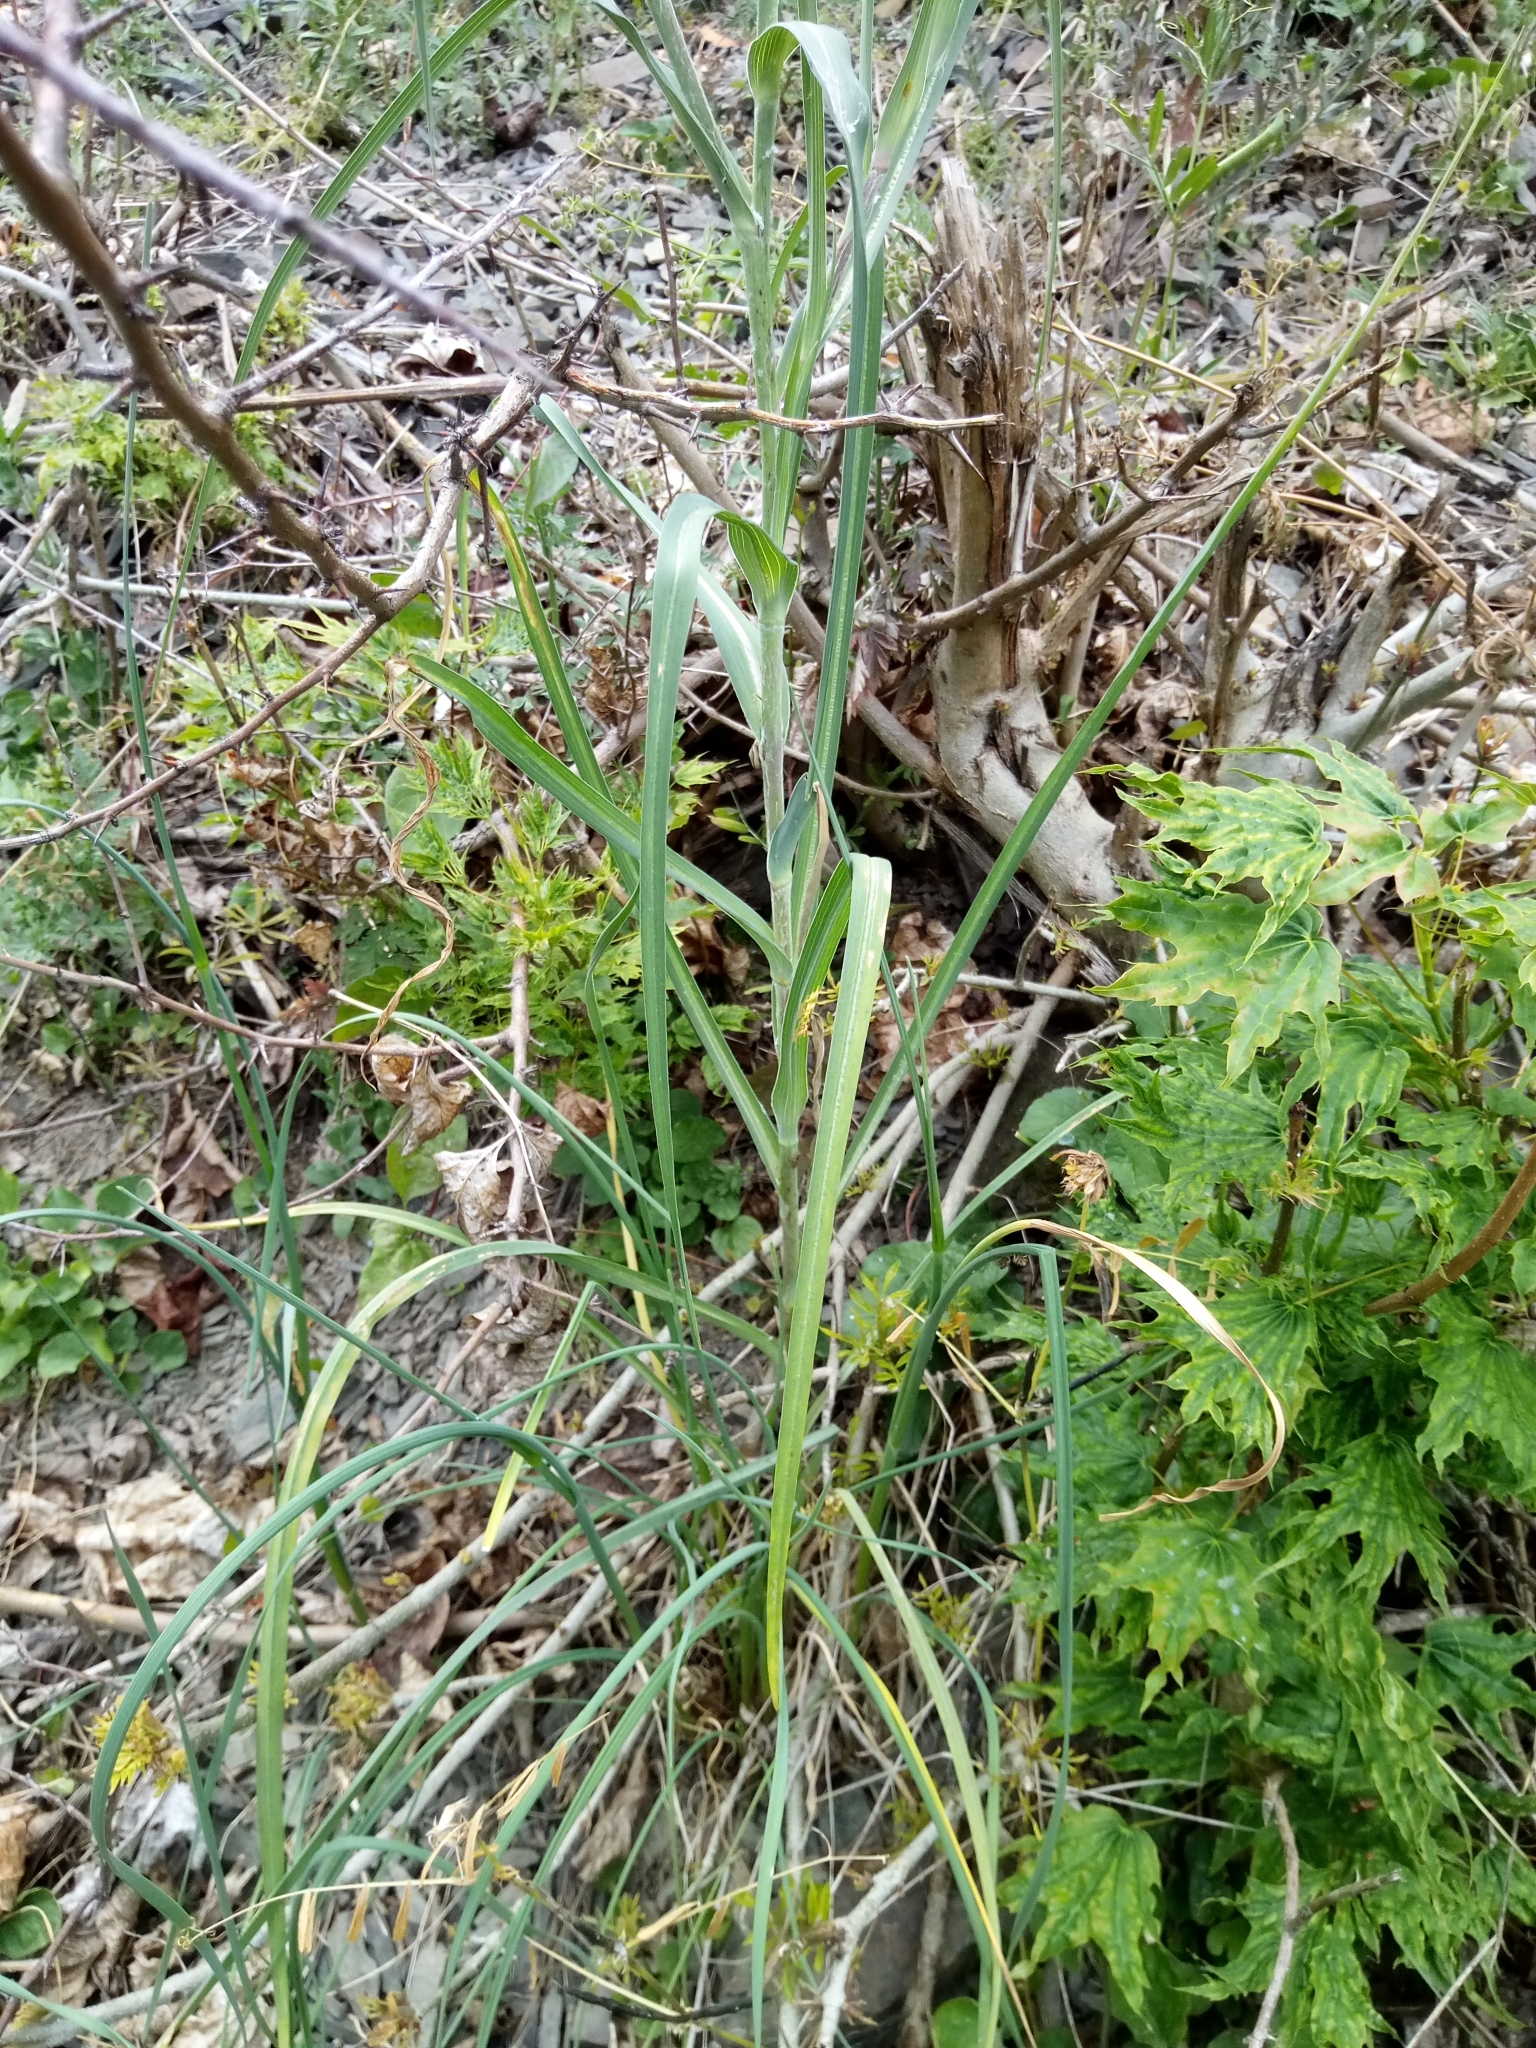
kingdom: Plantae
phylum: Tracheophyta
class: Magnoliopsida
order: Asterales
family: Asteraceae
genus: Tragopogon
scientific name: Tragopogon dubius
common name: Yellow salsify
